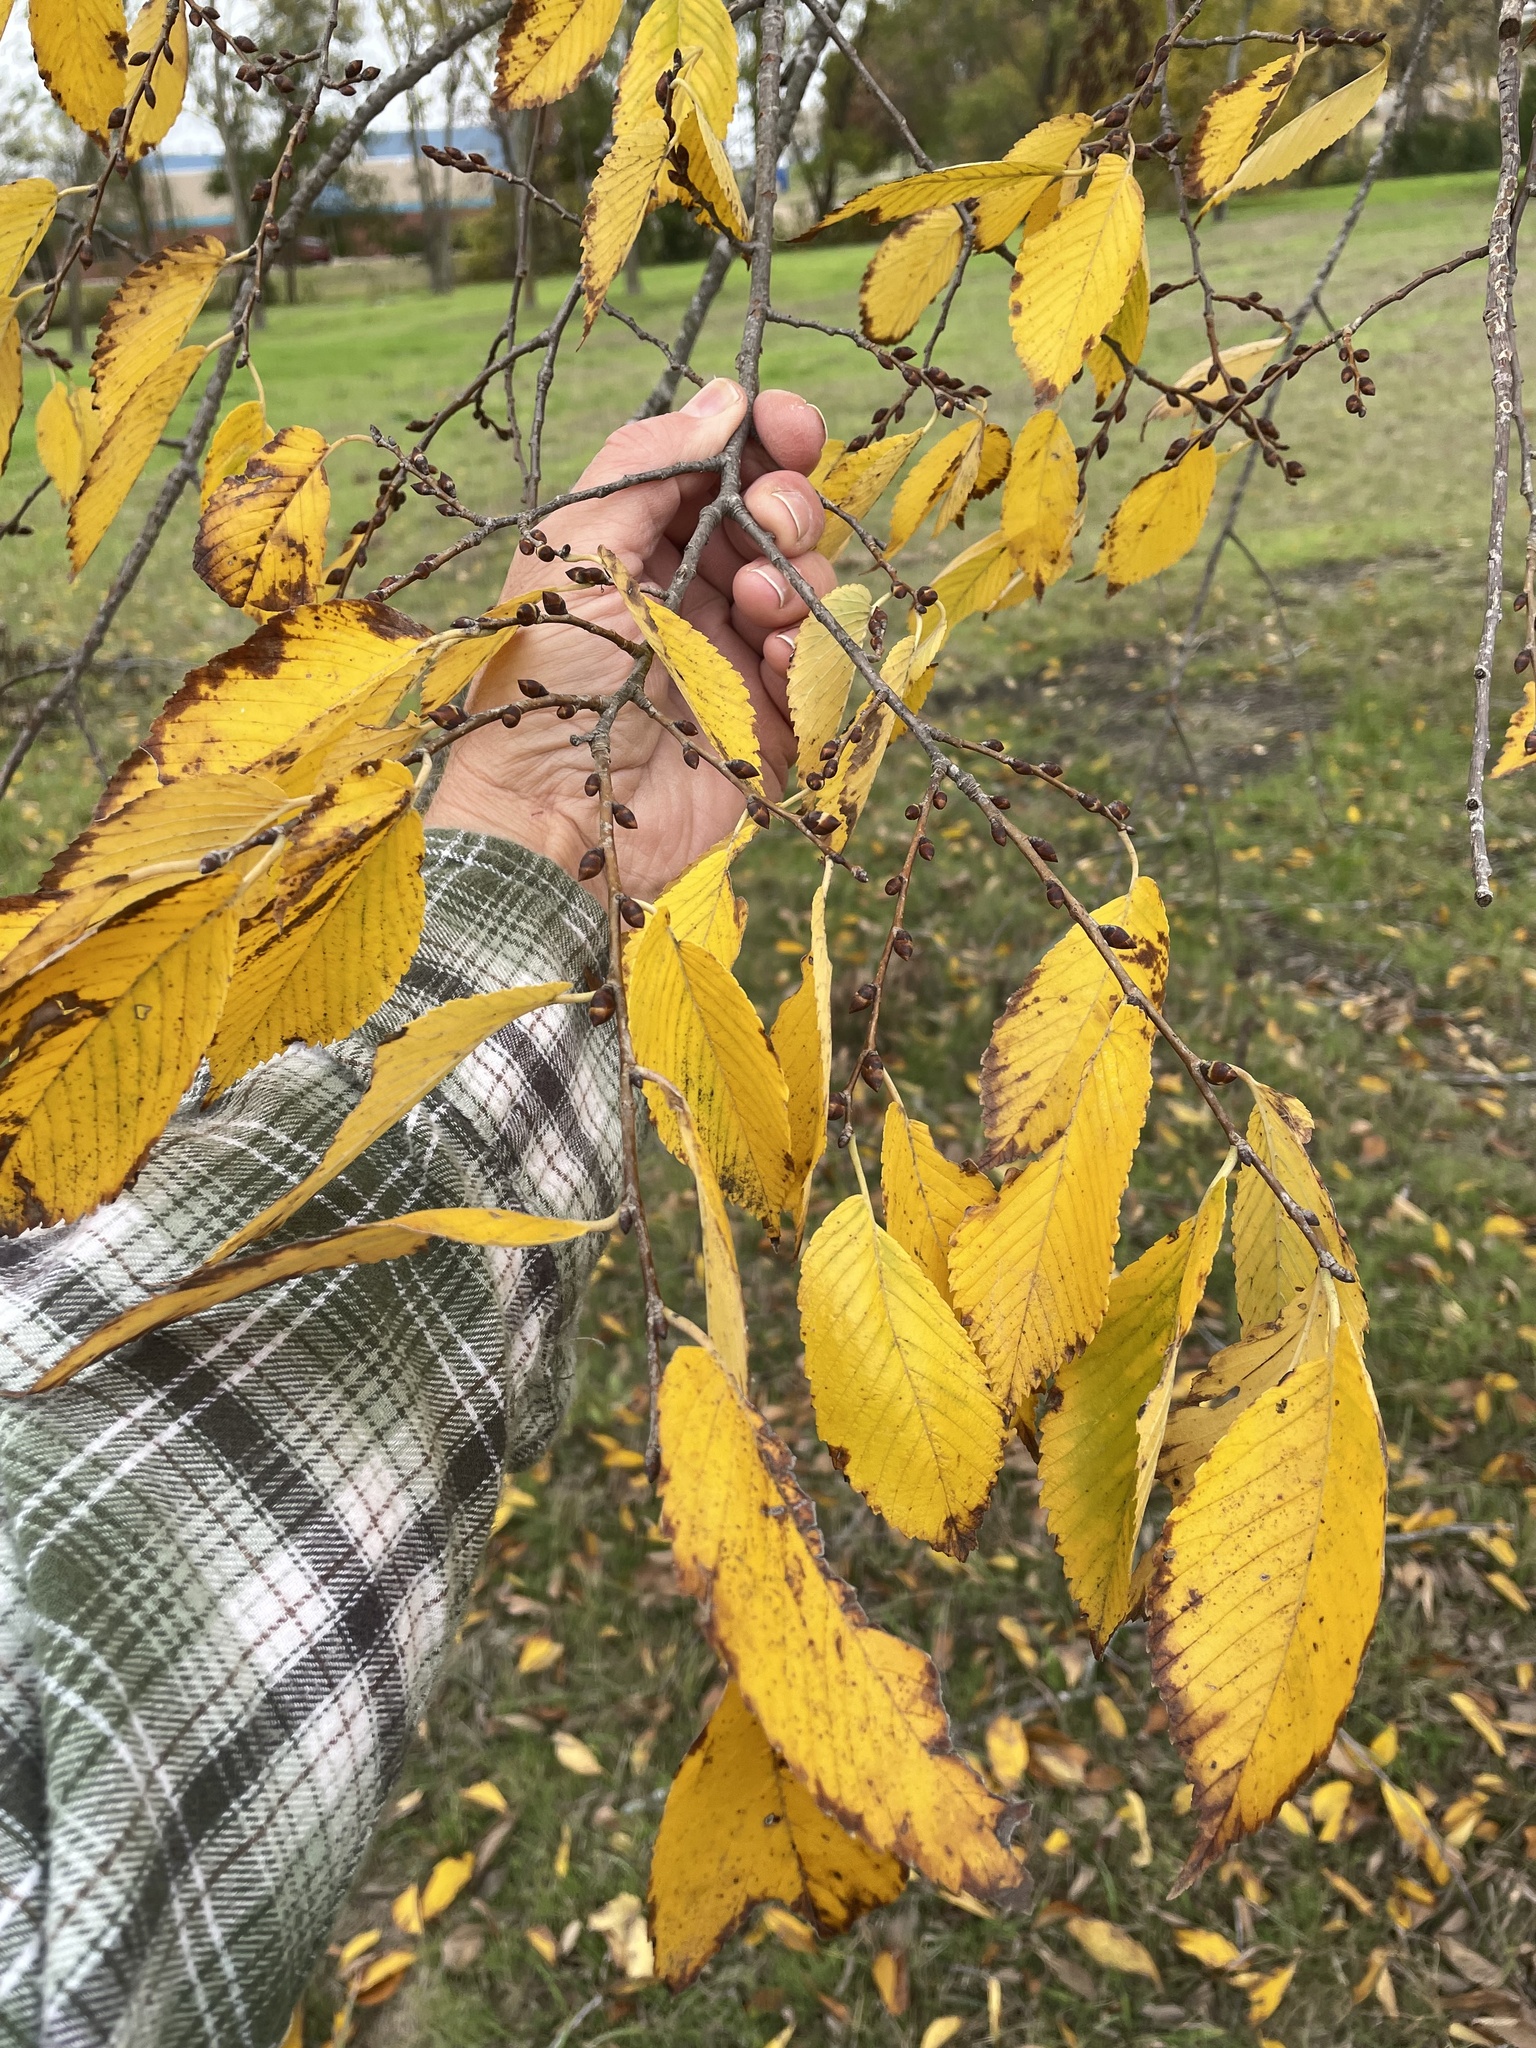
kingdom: Plantae
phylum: Tracheophyta
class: Magnoliopsida
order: Rosales
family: Ulmaceae
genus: Ulmus
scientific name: Ulmus americana
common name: American elm
